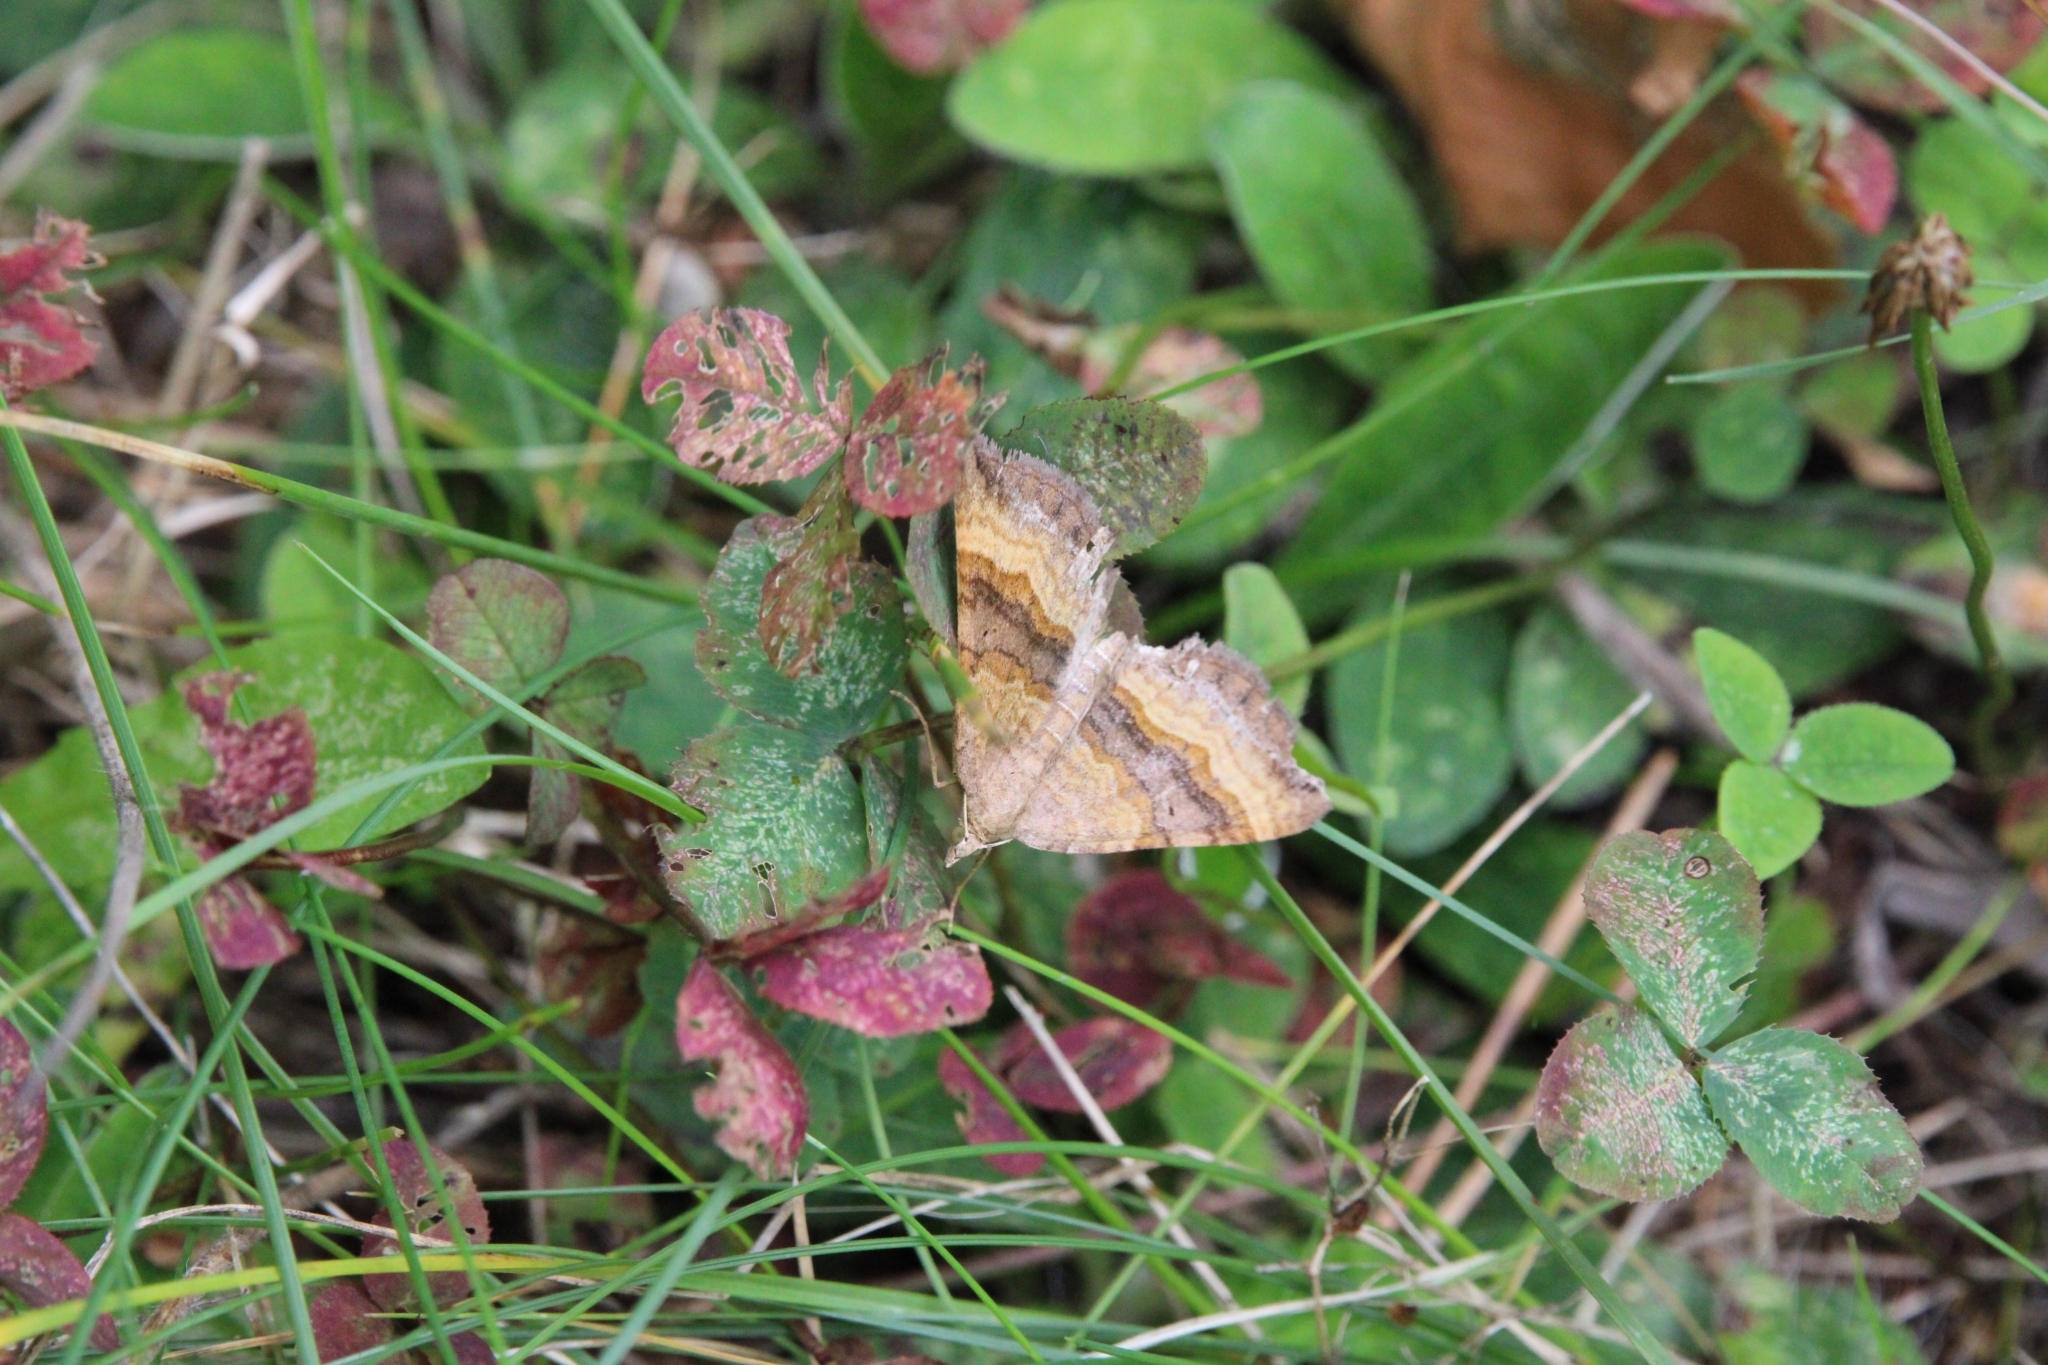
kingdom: Animalia
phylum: Arthropoda
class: Insecta
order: Lepidoptera
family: Geometridae
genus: Scotopteryx
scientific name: Scotopteryx chenopodiata
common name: Shaded broad-bar
